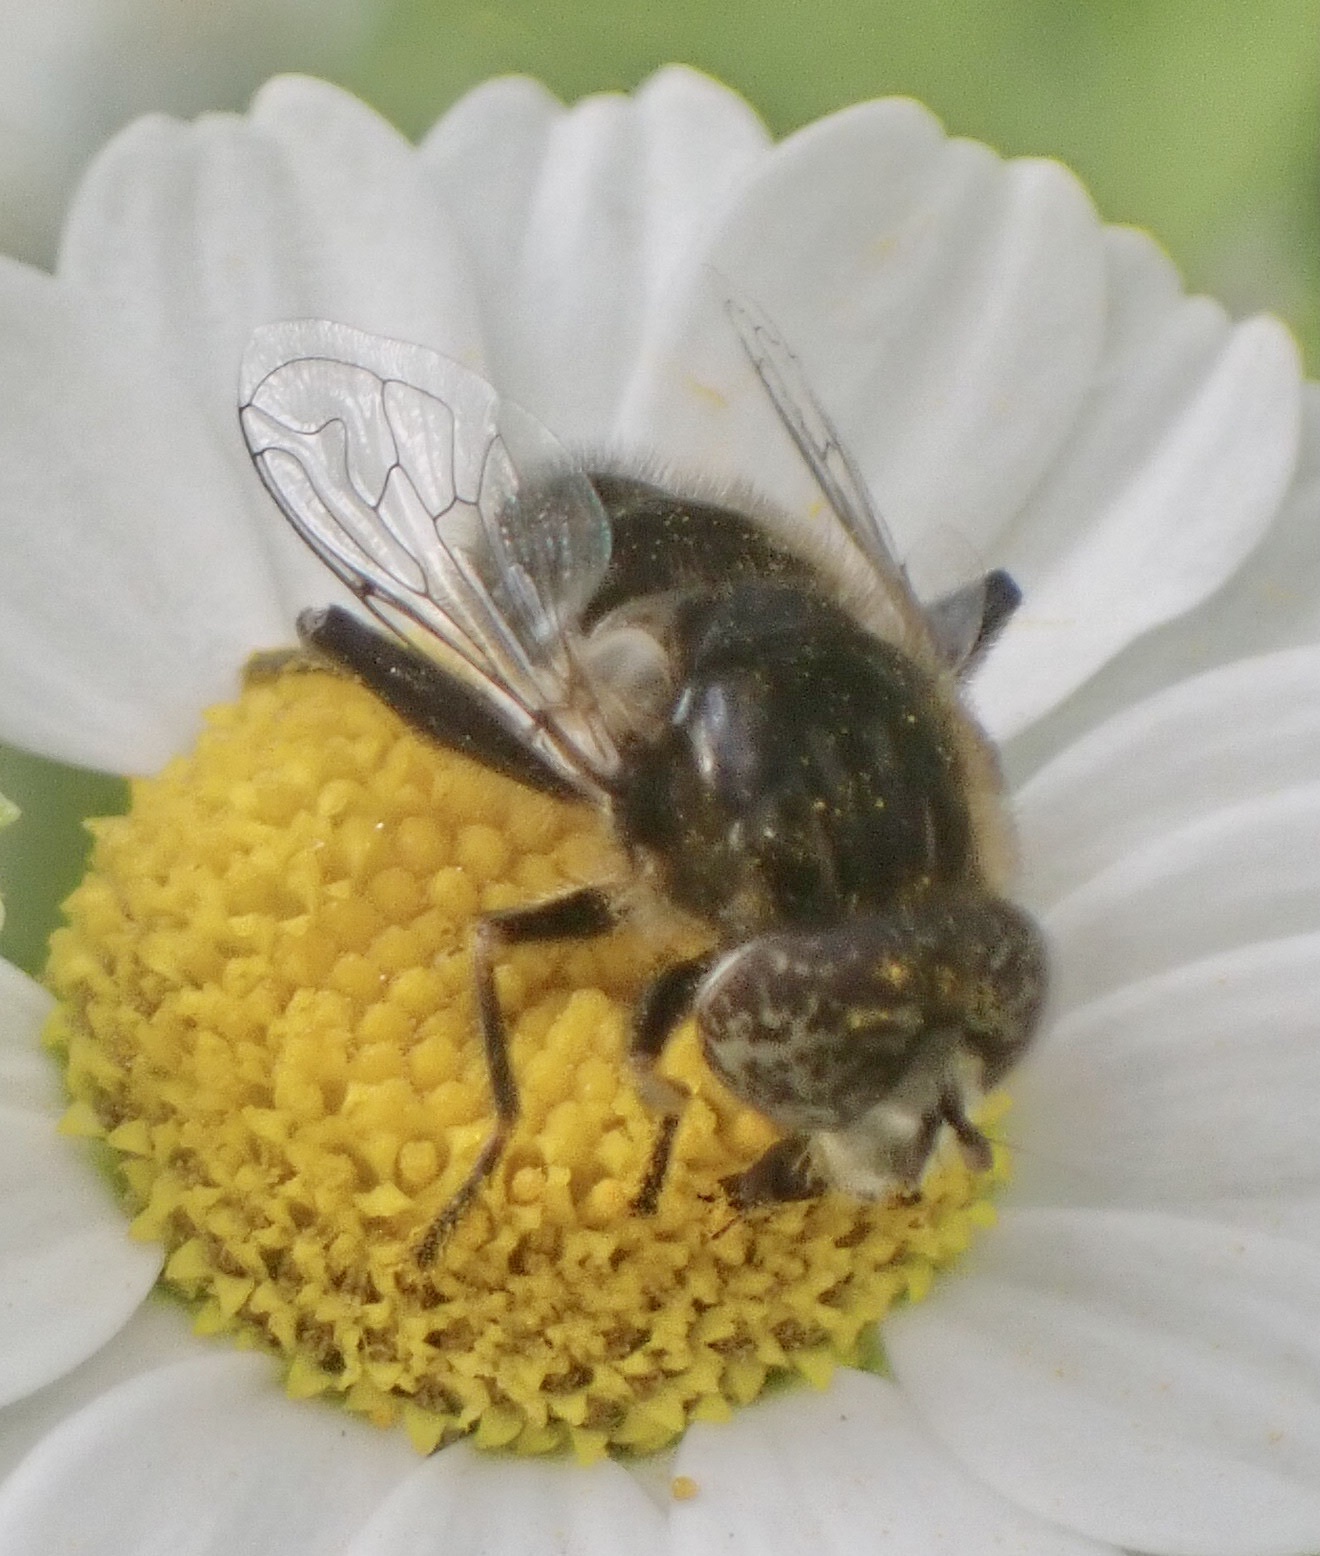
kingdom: Animalia
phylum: Arthropoda
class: Insecta
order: Diptera
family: Syrphidae
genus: Eristalinus
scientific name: Eristalinus sepulchralis
